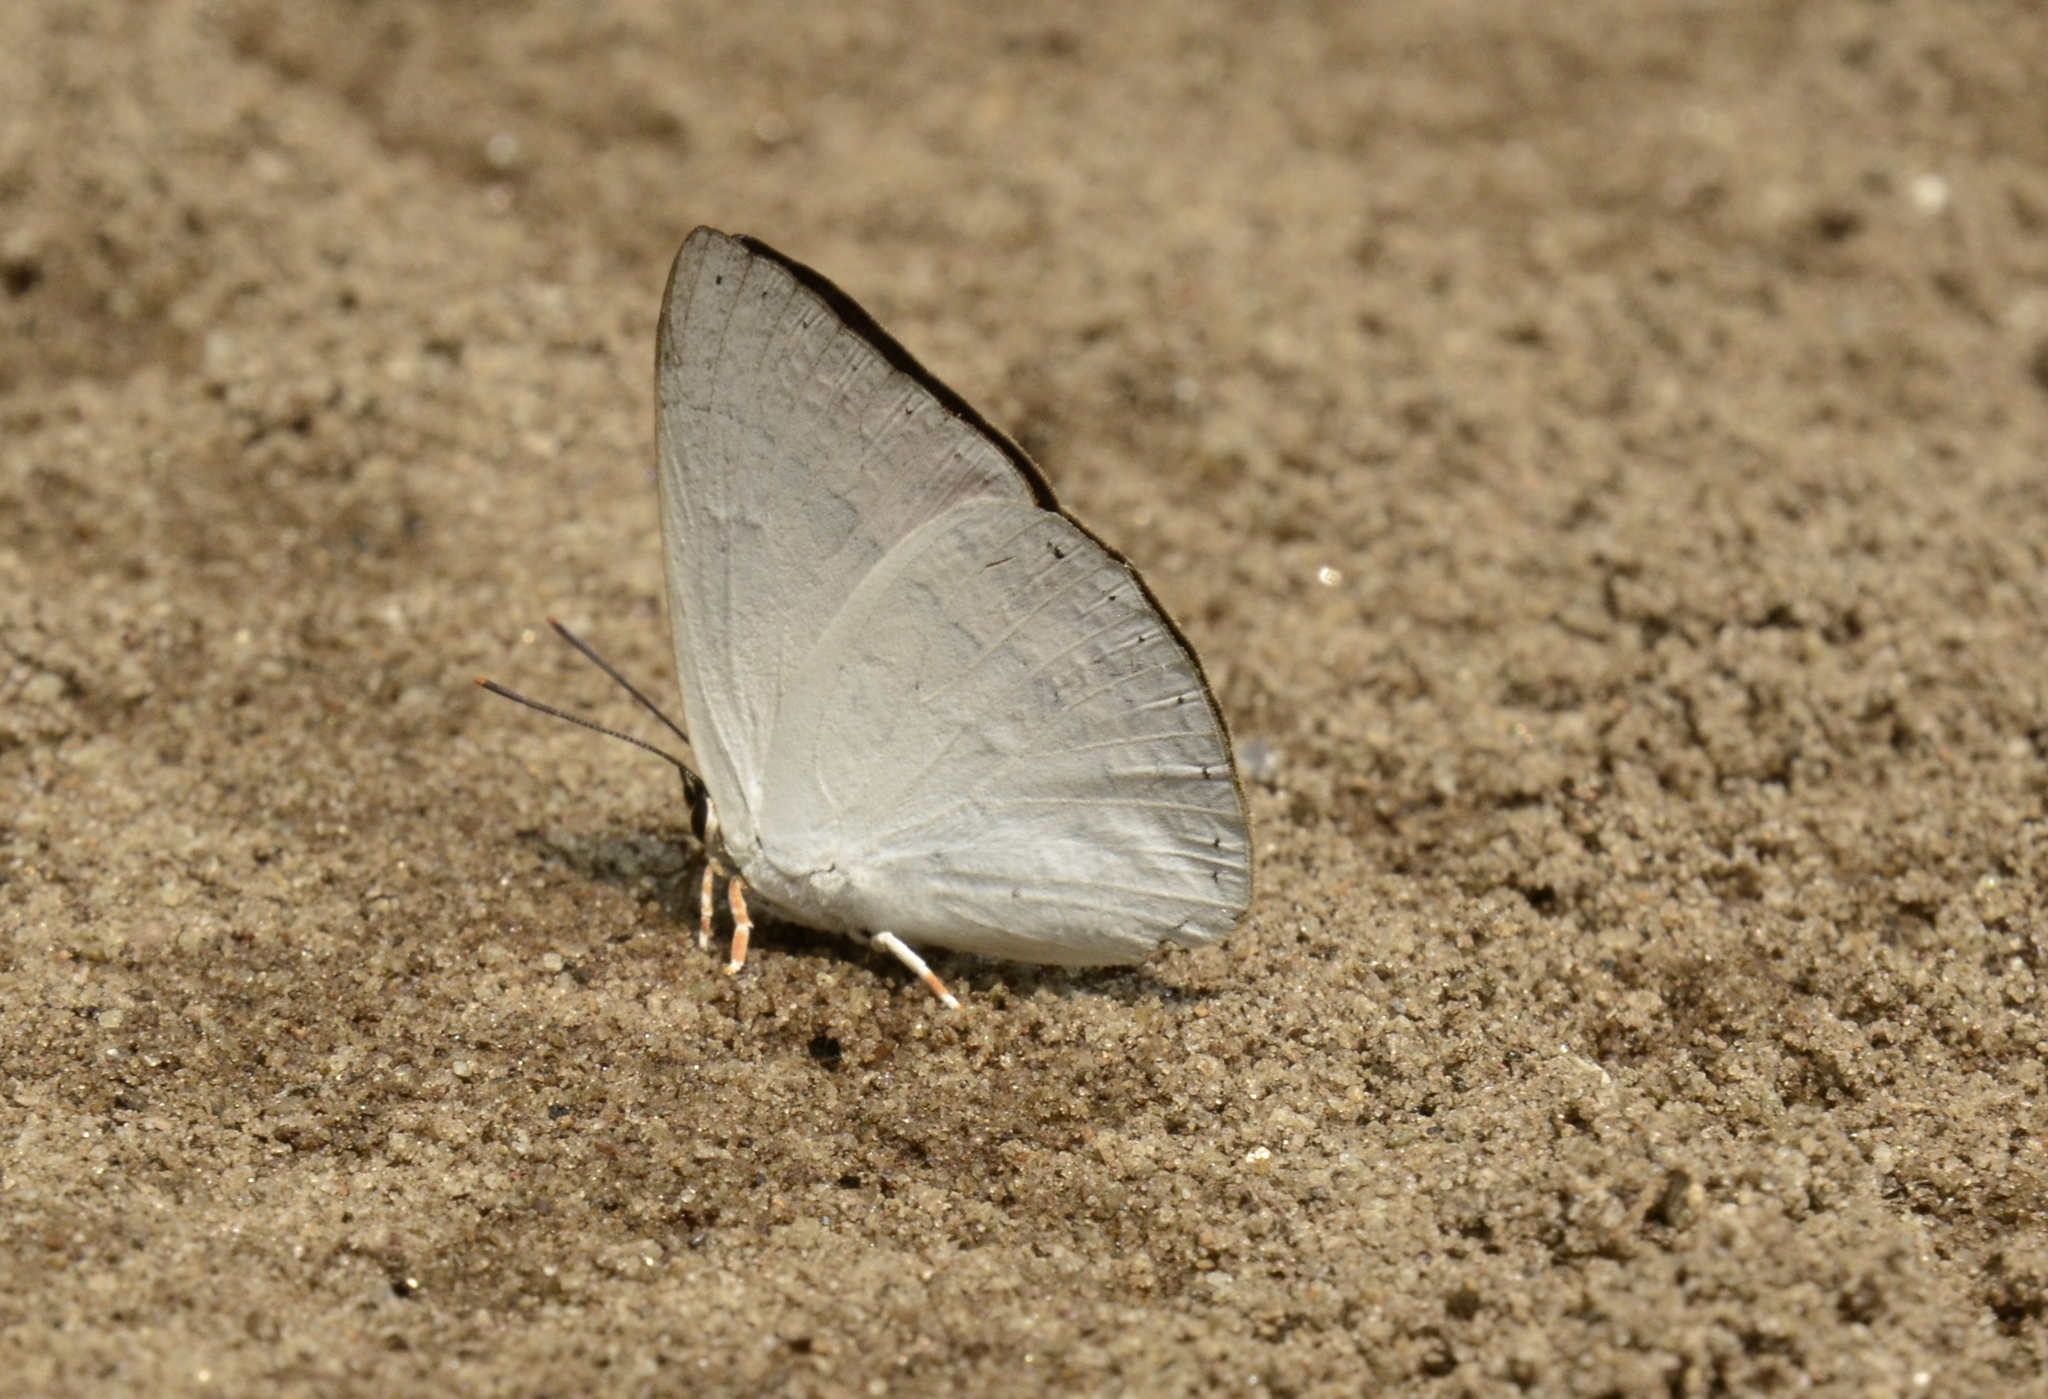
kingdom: Animalia
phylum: Arthropoda
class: Insecta
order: Lepidoptera
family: Lycaenidae
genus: Curetis
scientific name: Curetis thetis
